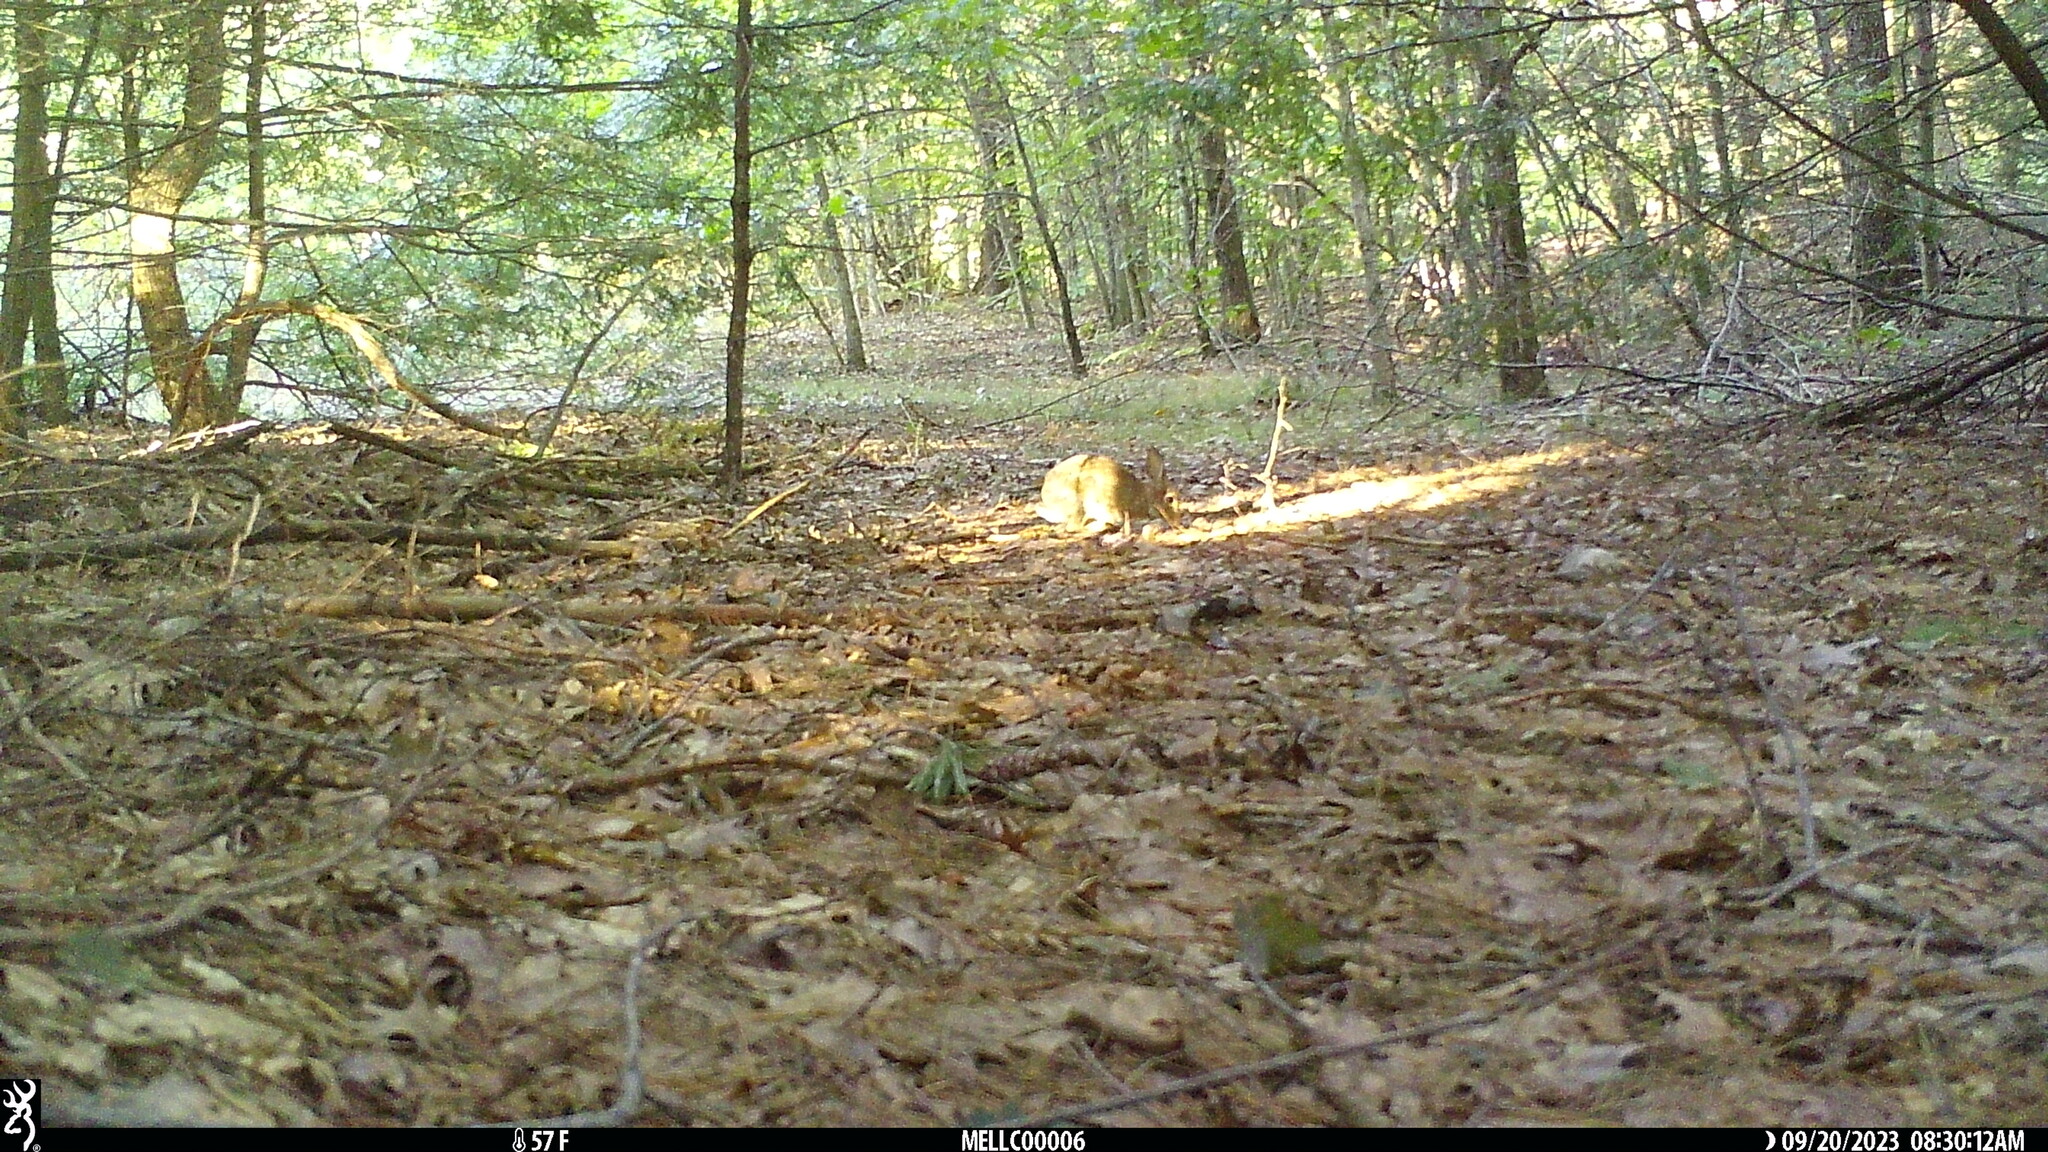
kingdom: Animalia
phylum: Chordata
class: Mammalia
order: Lagomorpha
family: Leporidae
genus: Sylvilagus
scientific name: Sylvilagus floridanus
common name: Eastern cottontail
